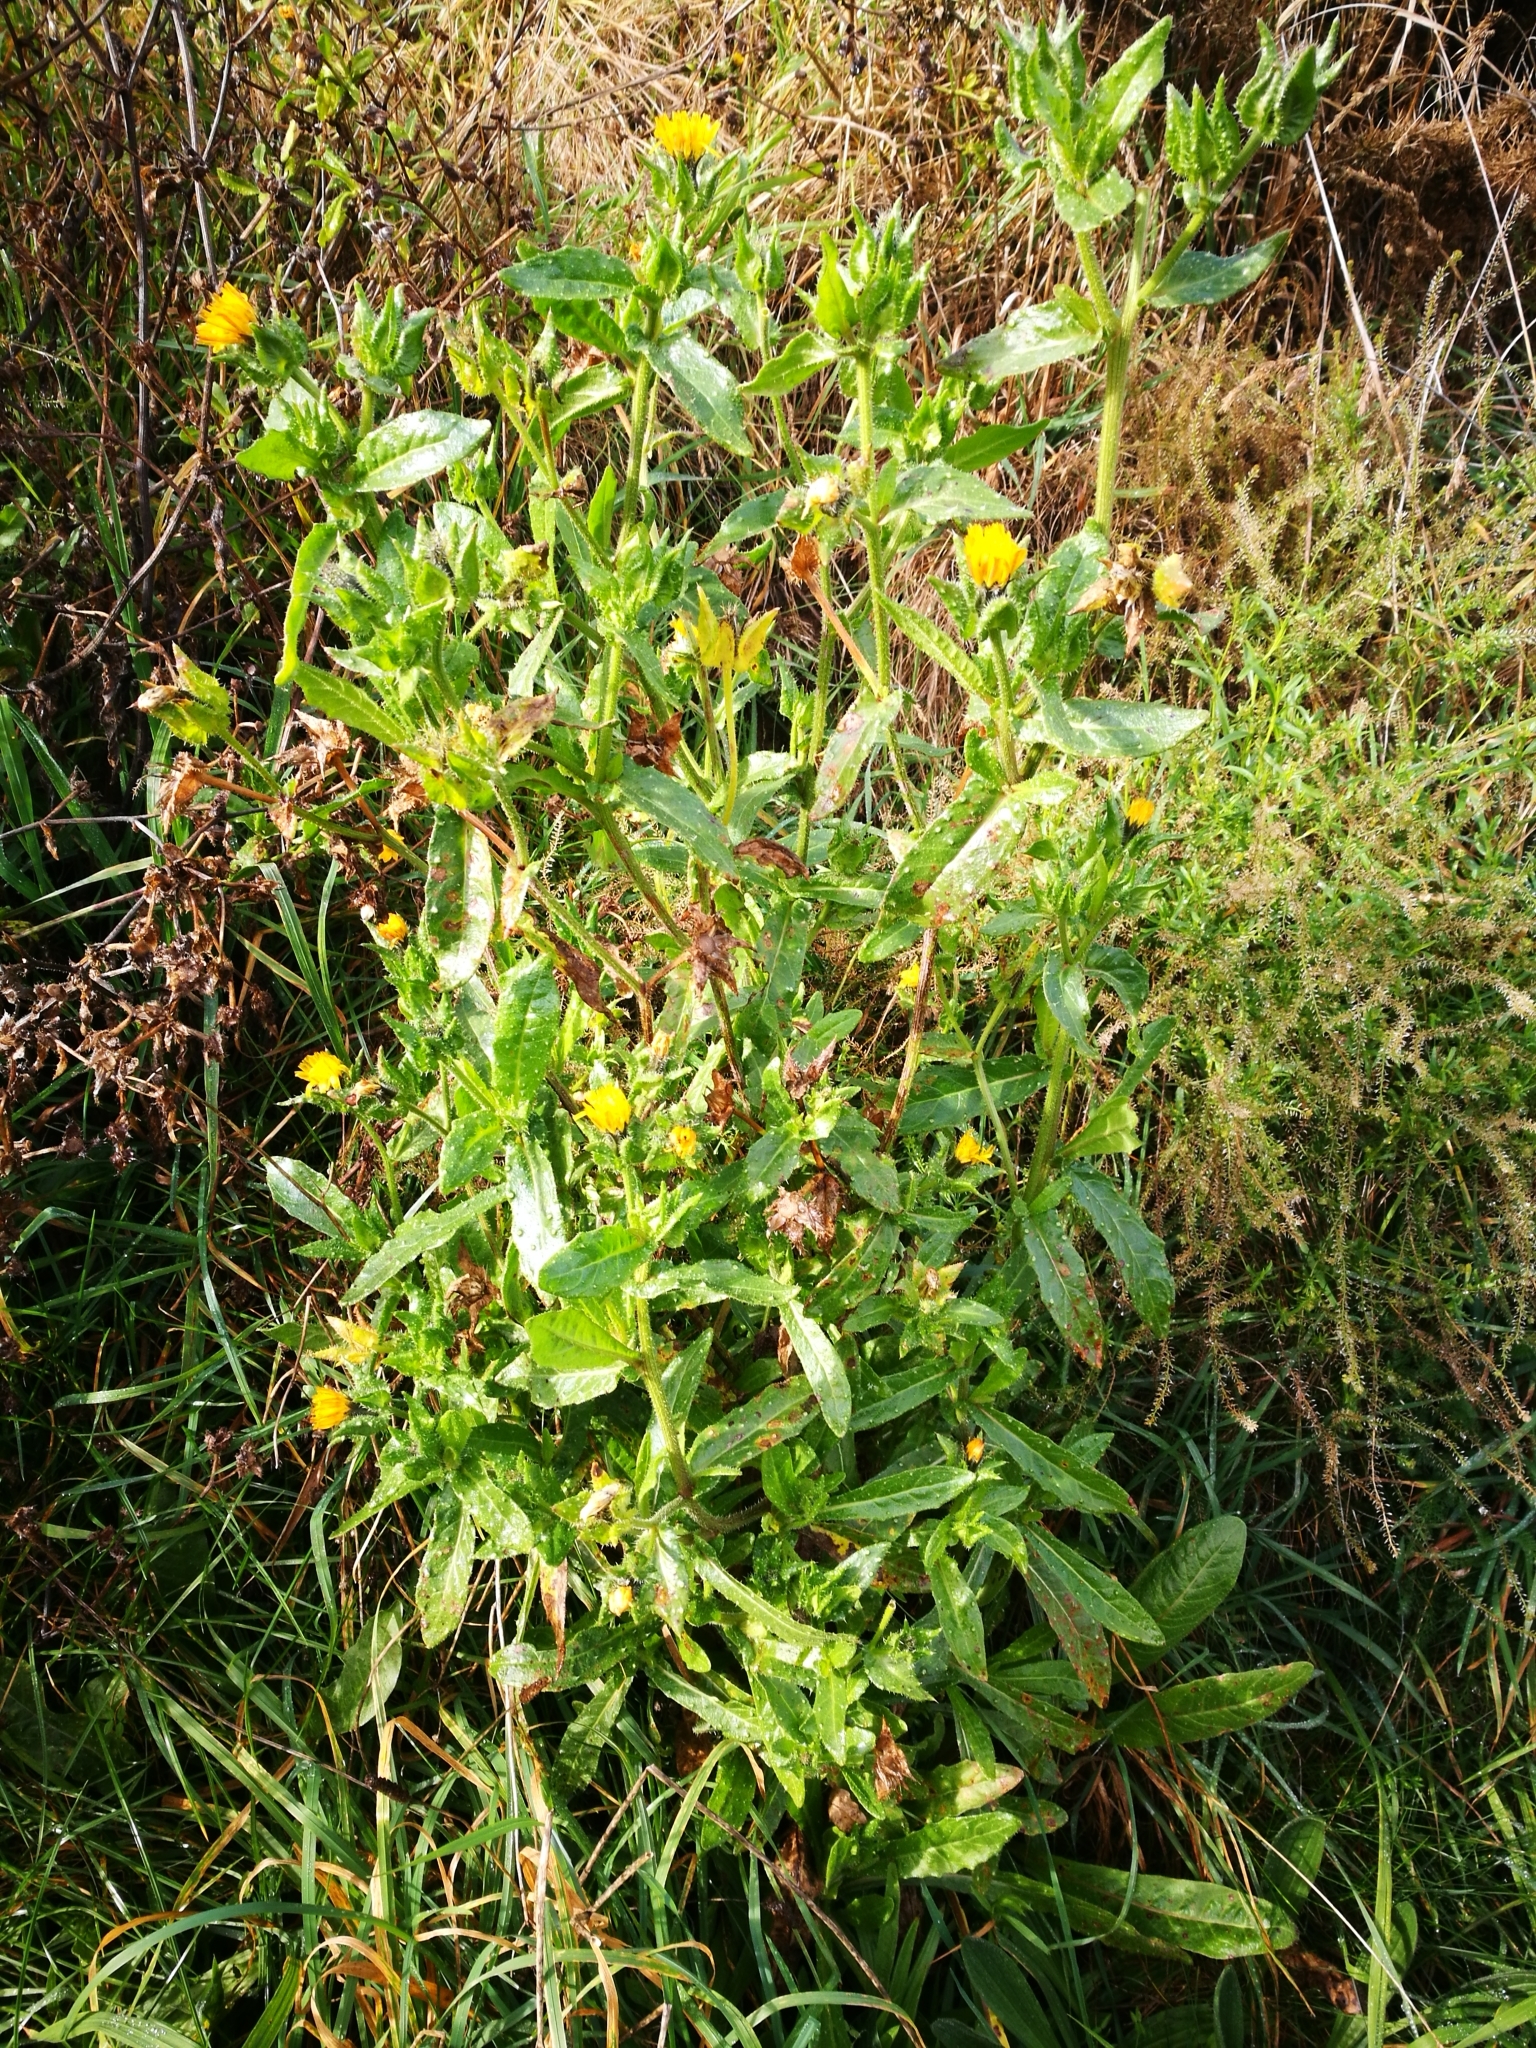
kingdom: Plantae
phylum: Tracheophyta
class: Magnoliopsida
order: Asterales
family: Asteraceae
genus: Helminthotheca
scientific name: Helminthotheca echioides
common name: Ox-tongue
